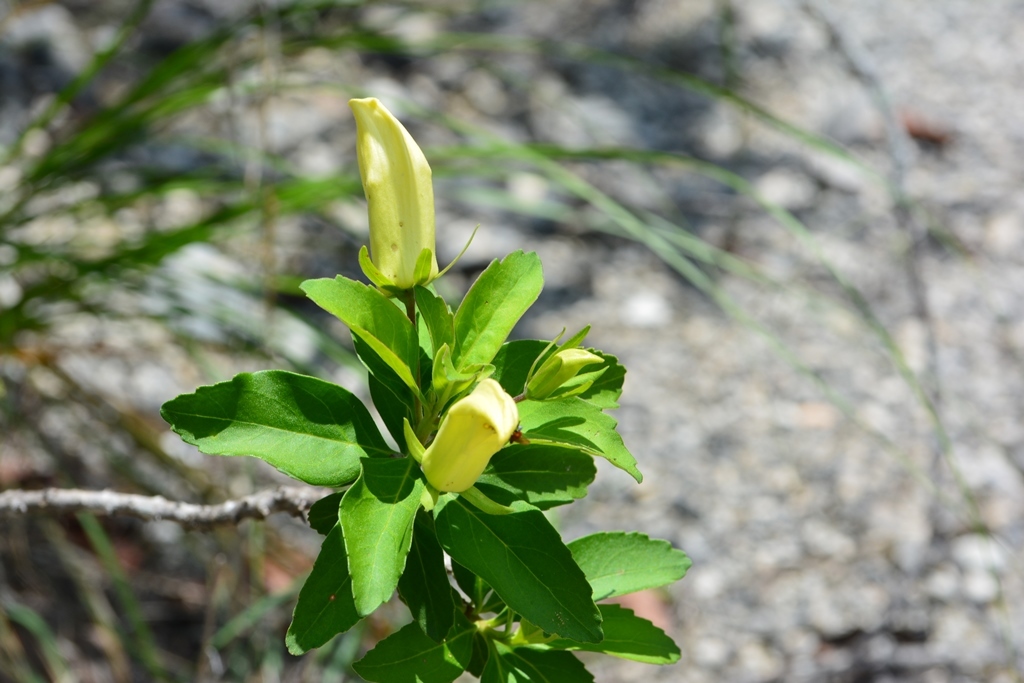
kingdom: Plantae
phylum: Tracheophyta
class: Magnoliopsida
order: Lamiales
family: Scrophulariaceae
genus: Eremogeton
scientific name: Eremogeton grandiflorus
